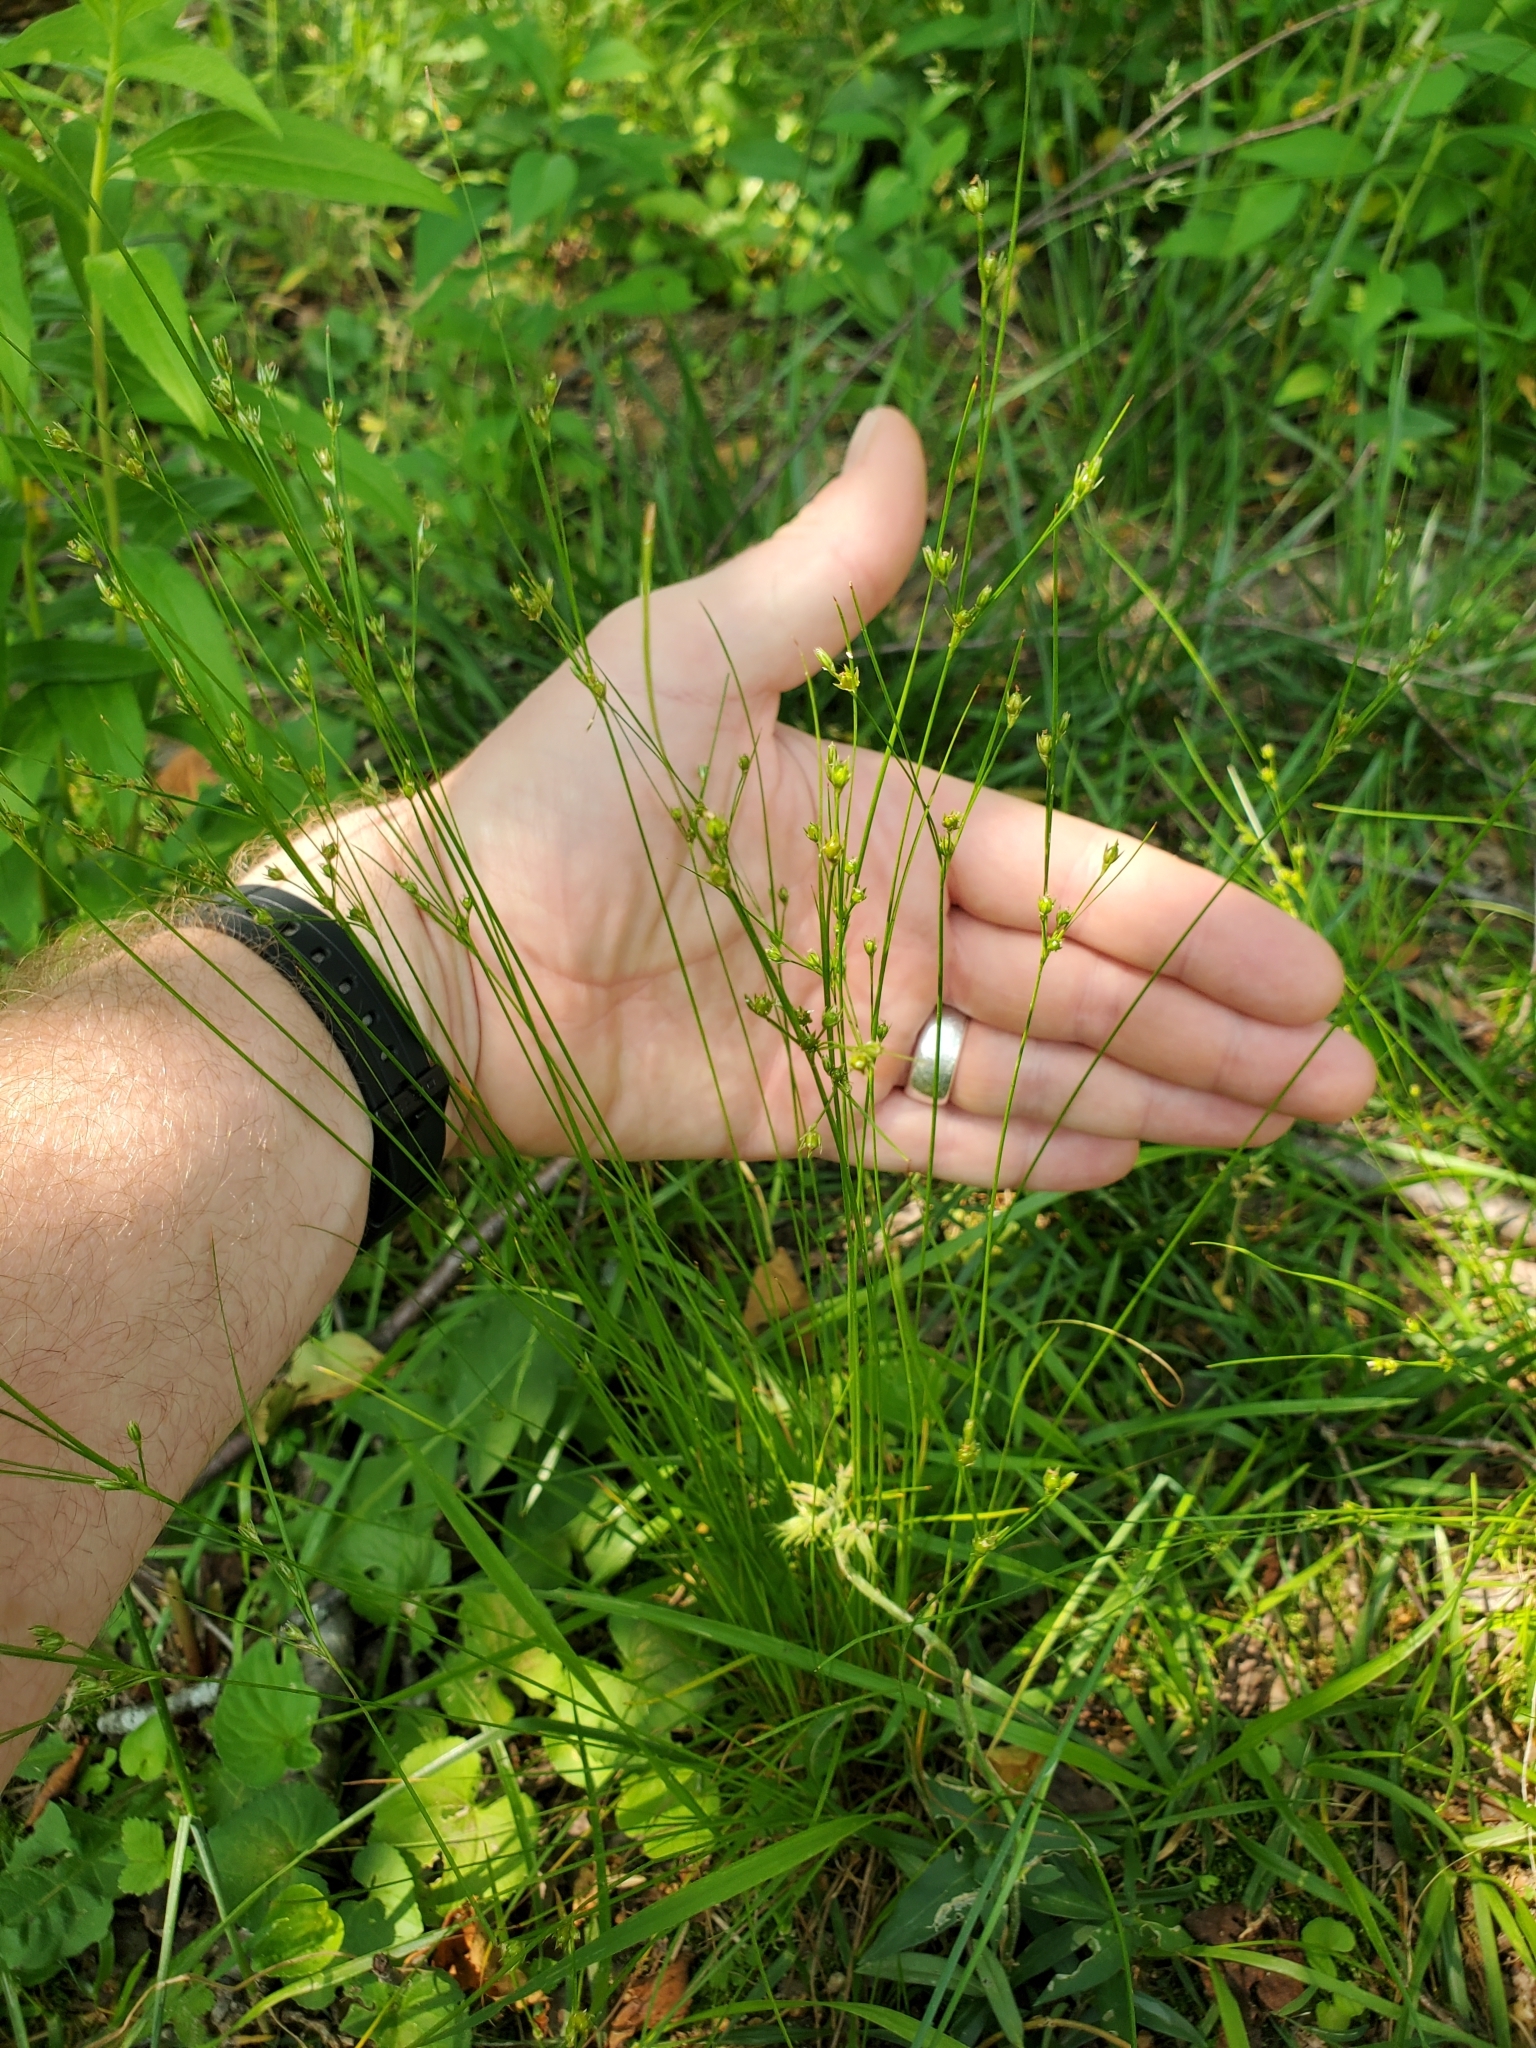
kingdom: Plantae
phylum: Tracheophyta
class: Liliopsida
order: Poales
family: Juncaceae
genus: Juncus
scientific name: Juncus tenuis
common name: Slender rush
